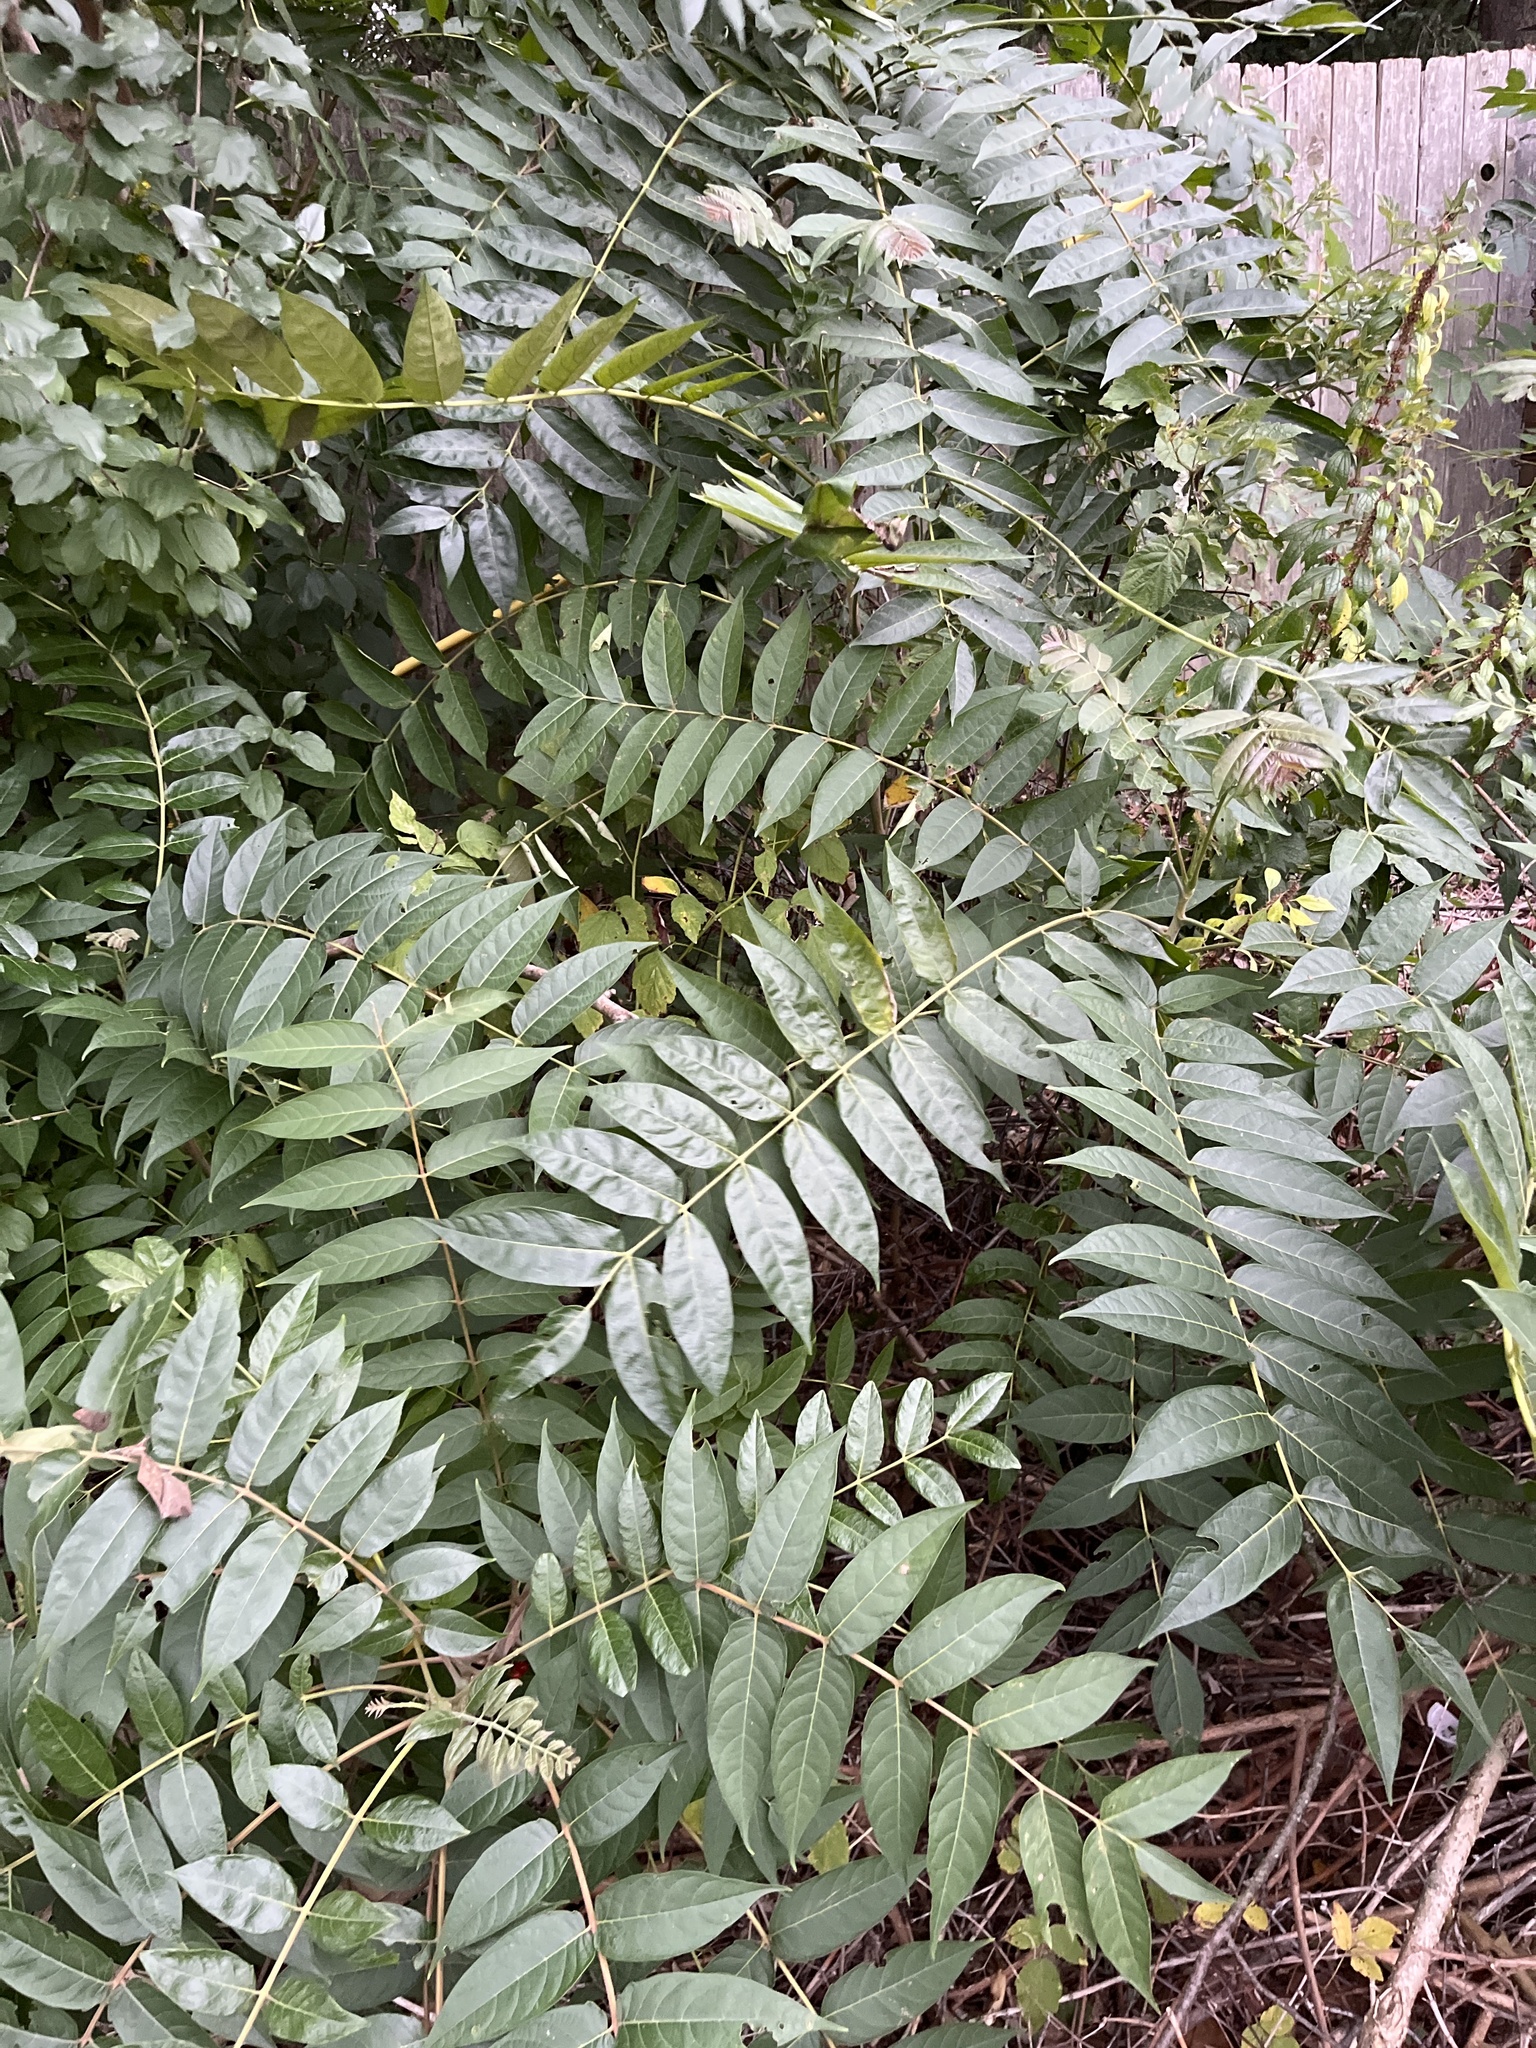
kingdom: Plantae
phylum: Tracheophyta
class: Magnoliopsida
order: Sapindales
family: Simaroubaceae
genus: Ailanthus
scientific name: Ailanthus altissima
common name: Tree-of-heaven
